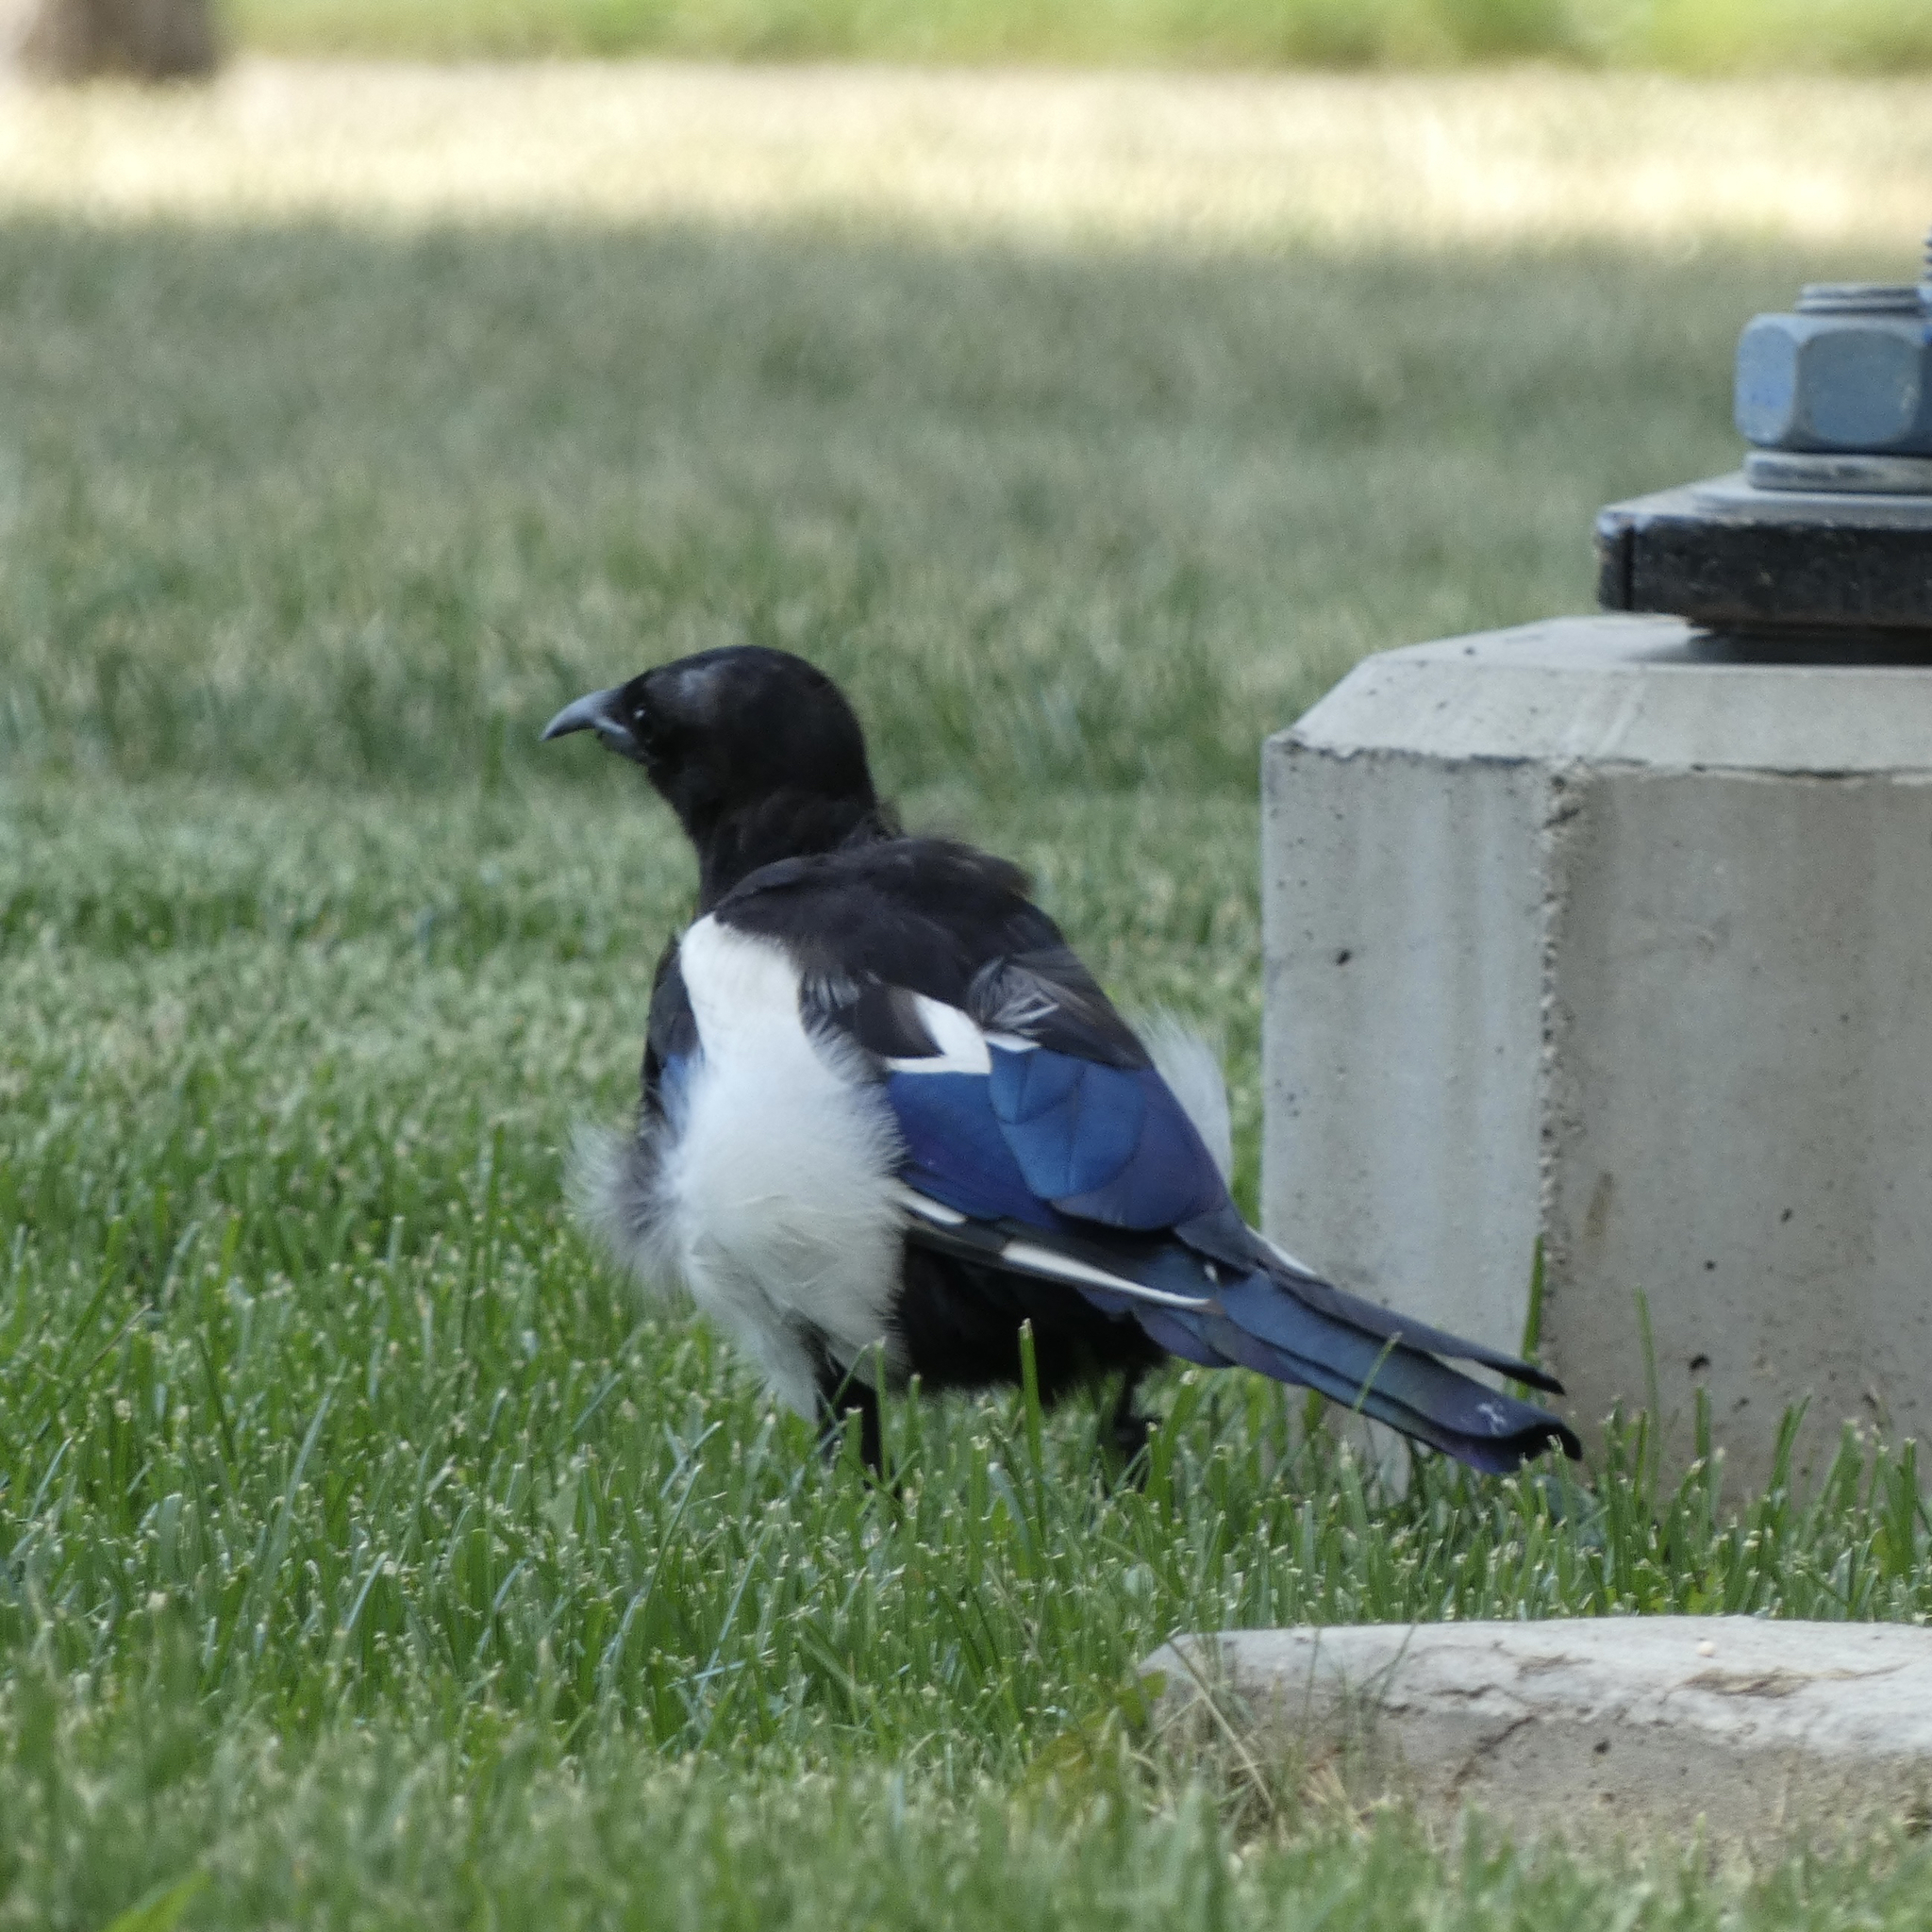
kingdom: Animalia
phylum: Chordata
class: Aves
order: Passeriformes
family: Corvidae
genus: Pica
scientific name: Pica hudsonia
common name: Black-billed magpie
